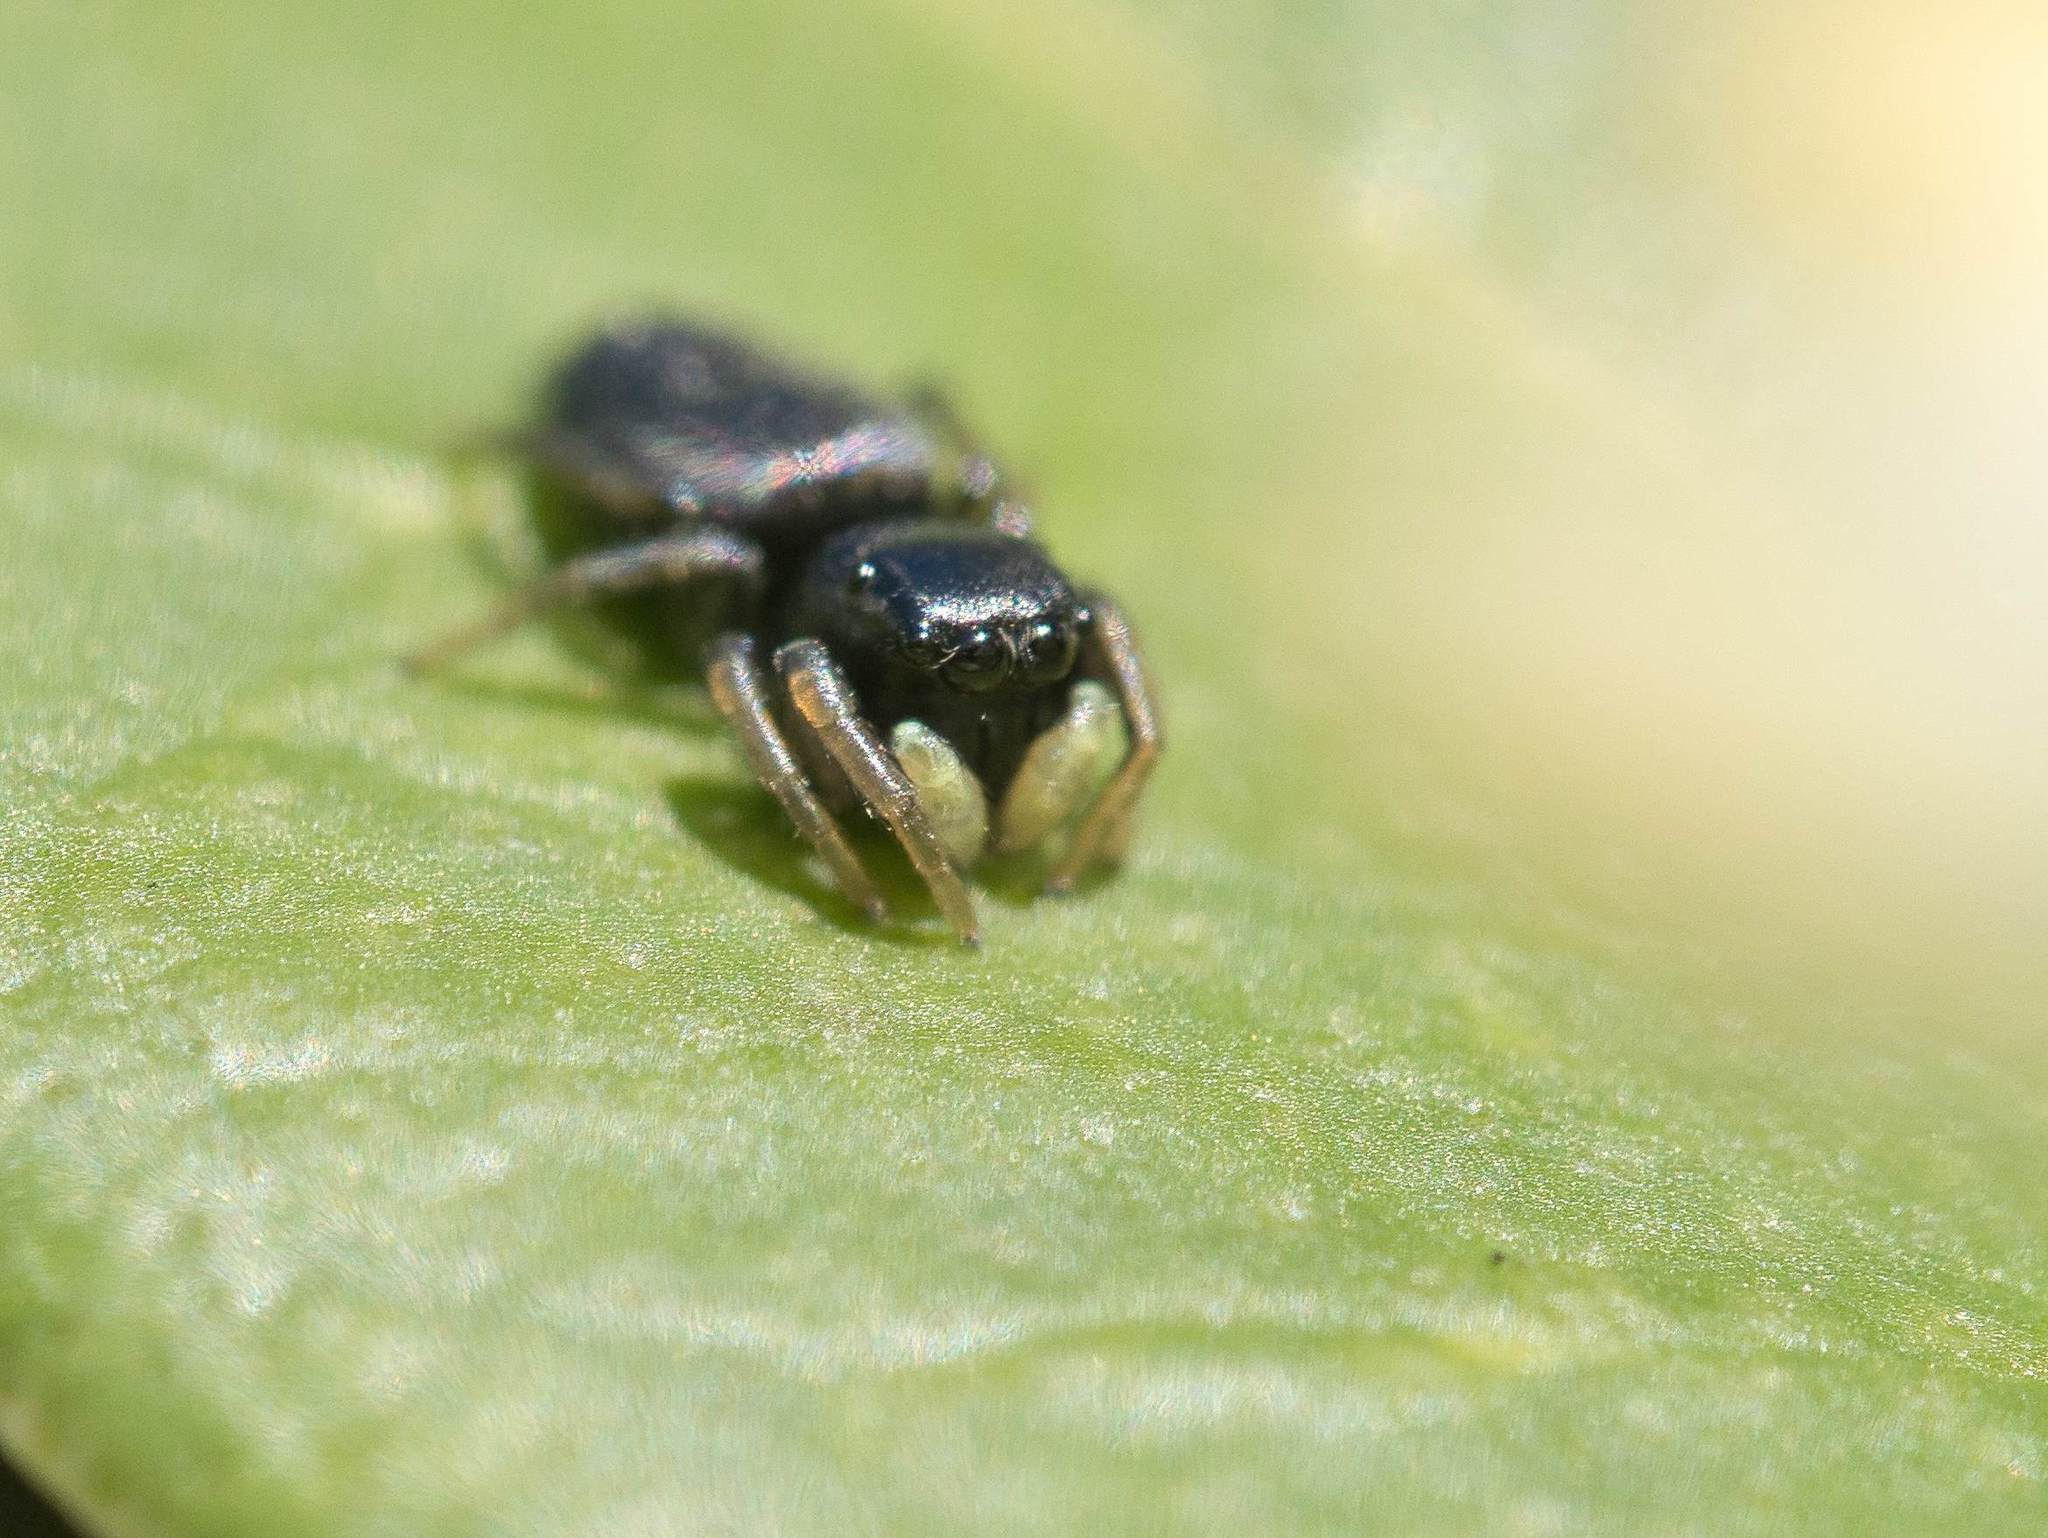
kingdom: Animalia
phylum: Arthropoda
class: Arachnida
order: Araneae
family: Salticidae
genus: Heliophanus
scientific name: Heliophanus cupreus
